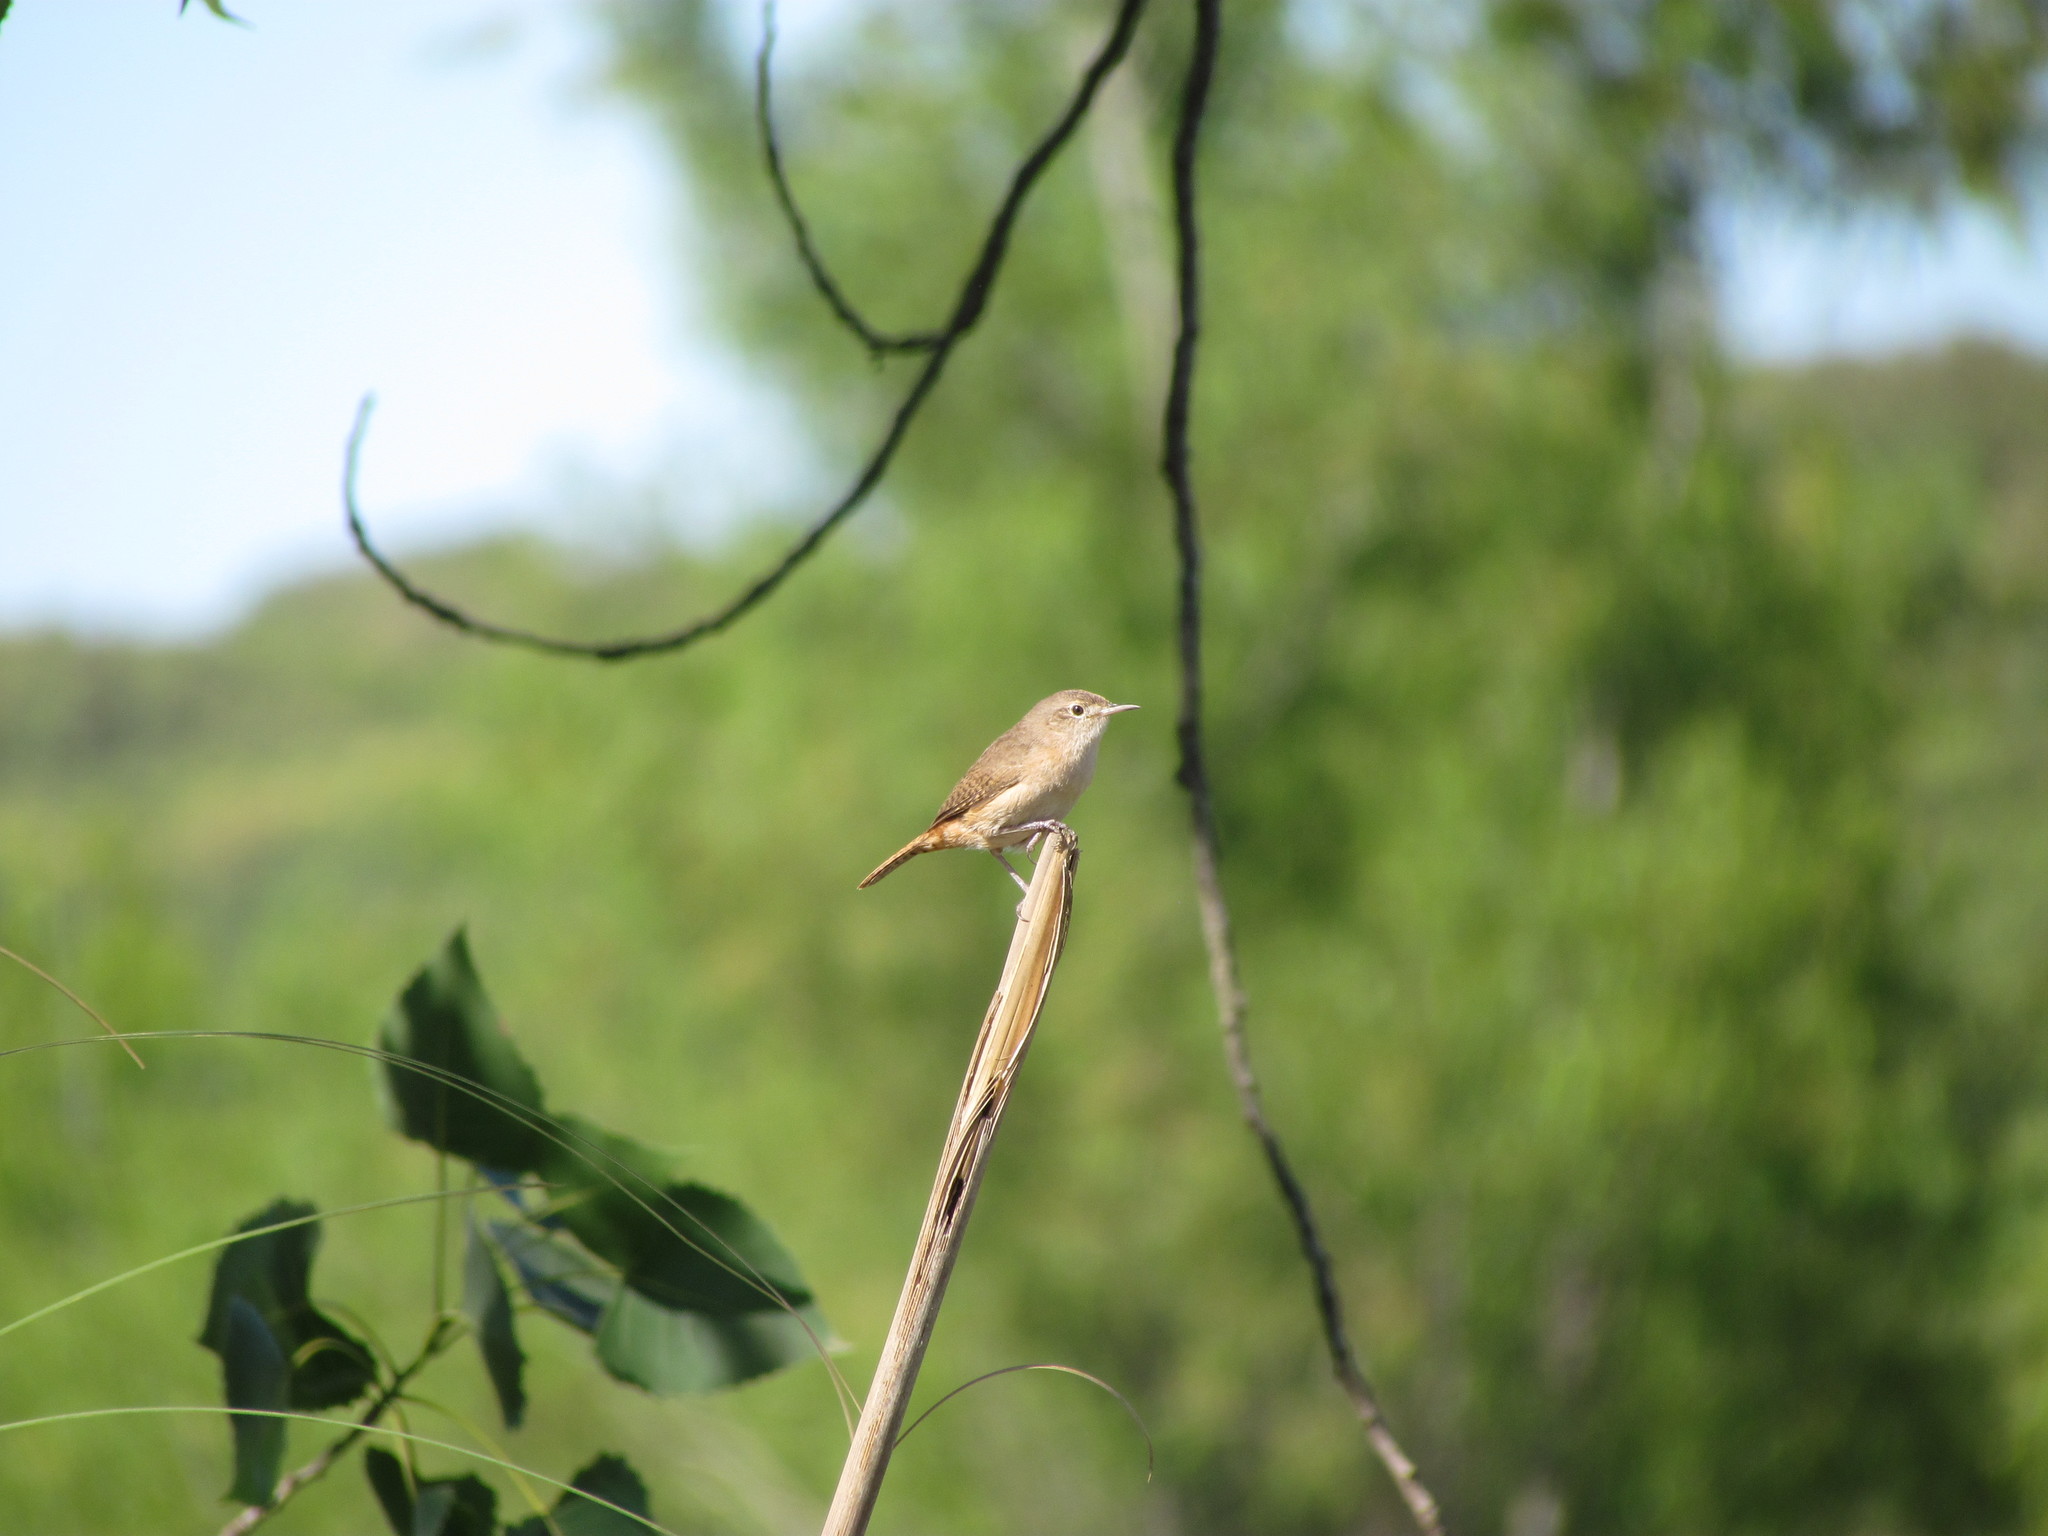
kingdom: Animalia
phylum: Chordata
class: Aves
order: Passeriformes
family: Troglodytidae
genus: Troglodytes
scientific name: Troglodytes aedon
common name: House wren
